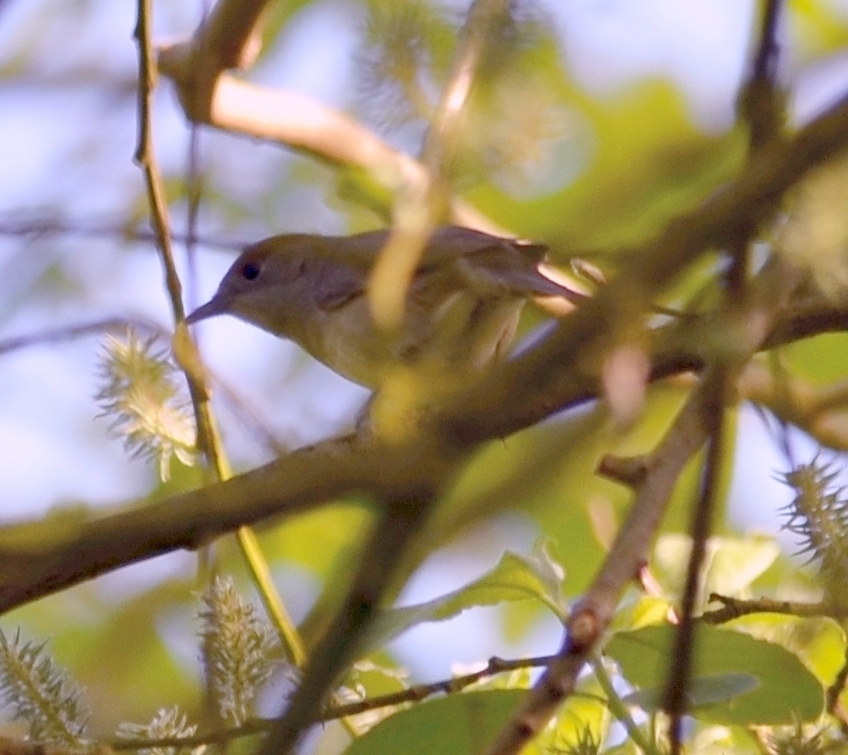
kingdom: Animalia
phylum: Chordata
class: Aves
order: Passeriformes
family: Sylviidae
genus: Sylvia
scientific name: Sylvia atricapilla
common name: Eurasian blackcap
